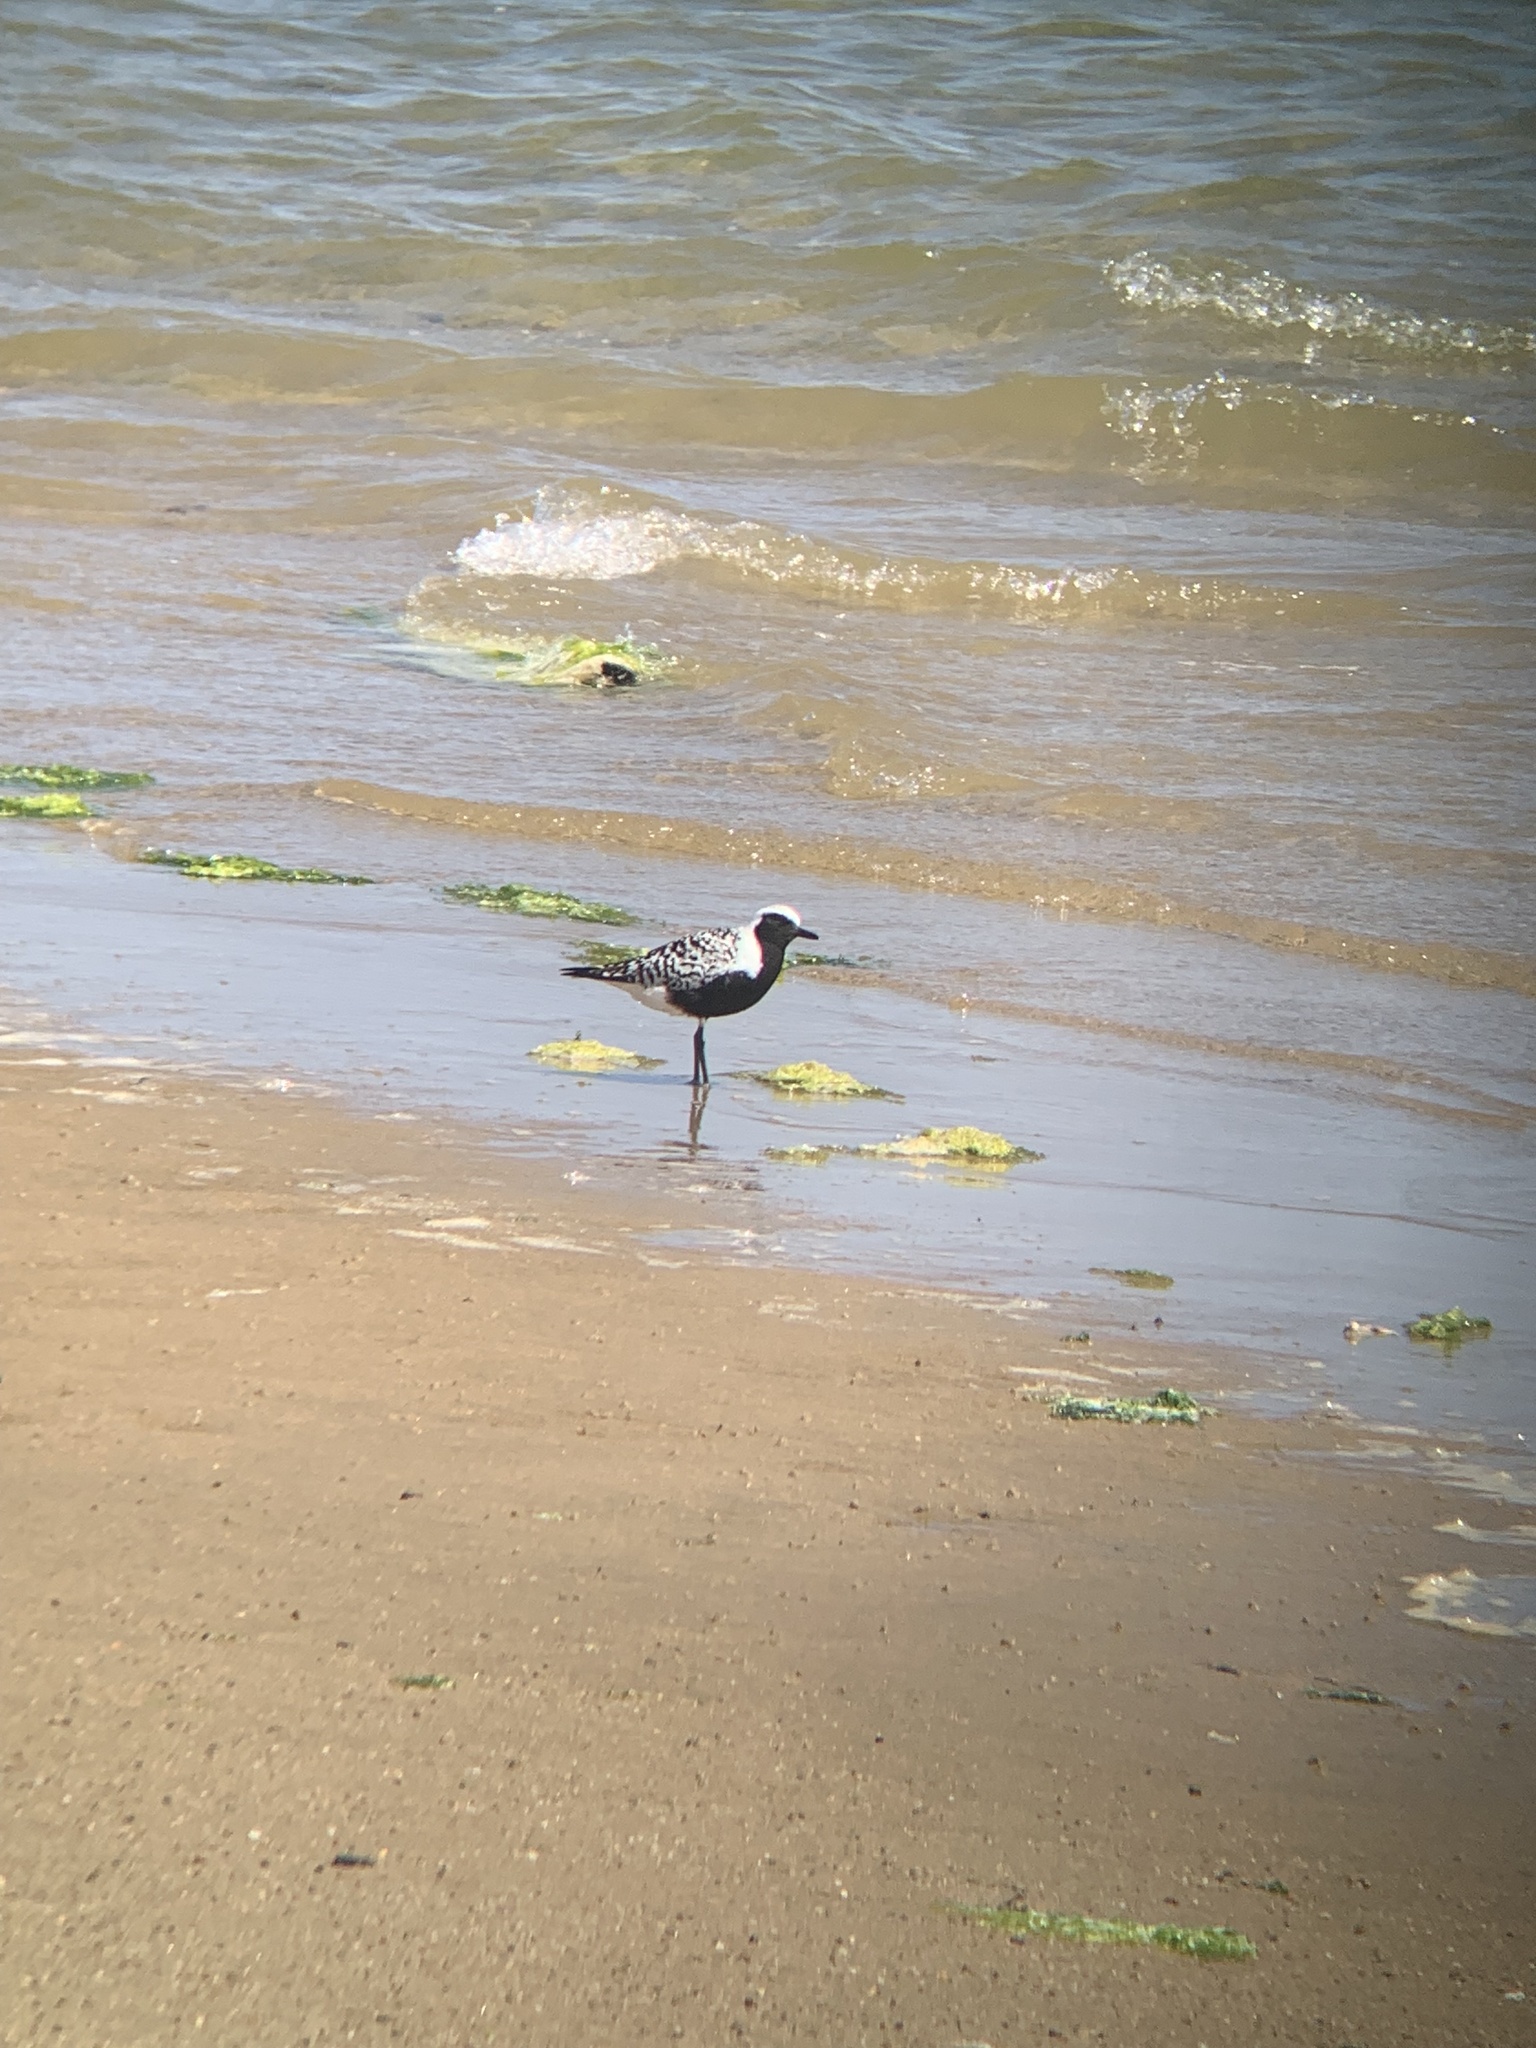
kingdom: Animalia
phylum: Chordata
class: Aves
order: Charadriiformes
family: Charadriidae
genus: Pluvialis
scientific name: Pluvialis squatarola
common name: Grey plover
